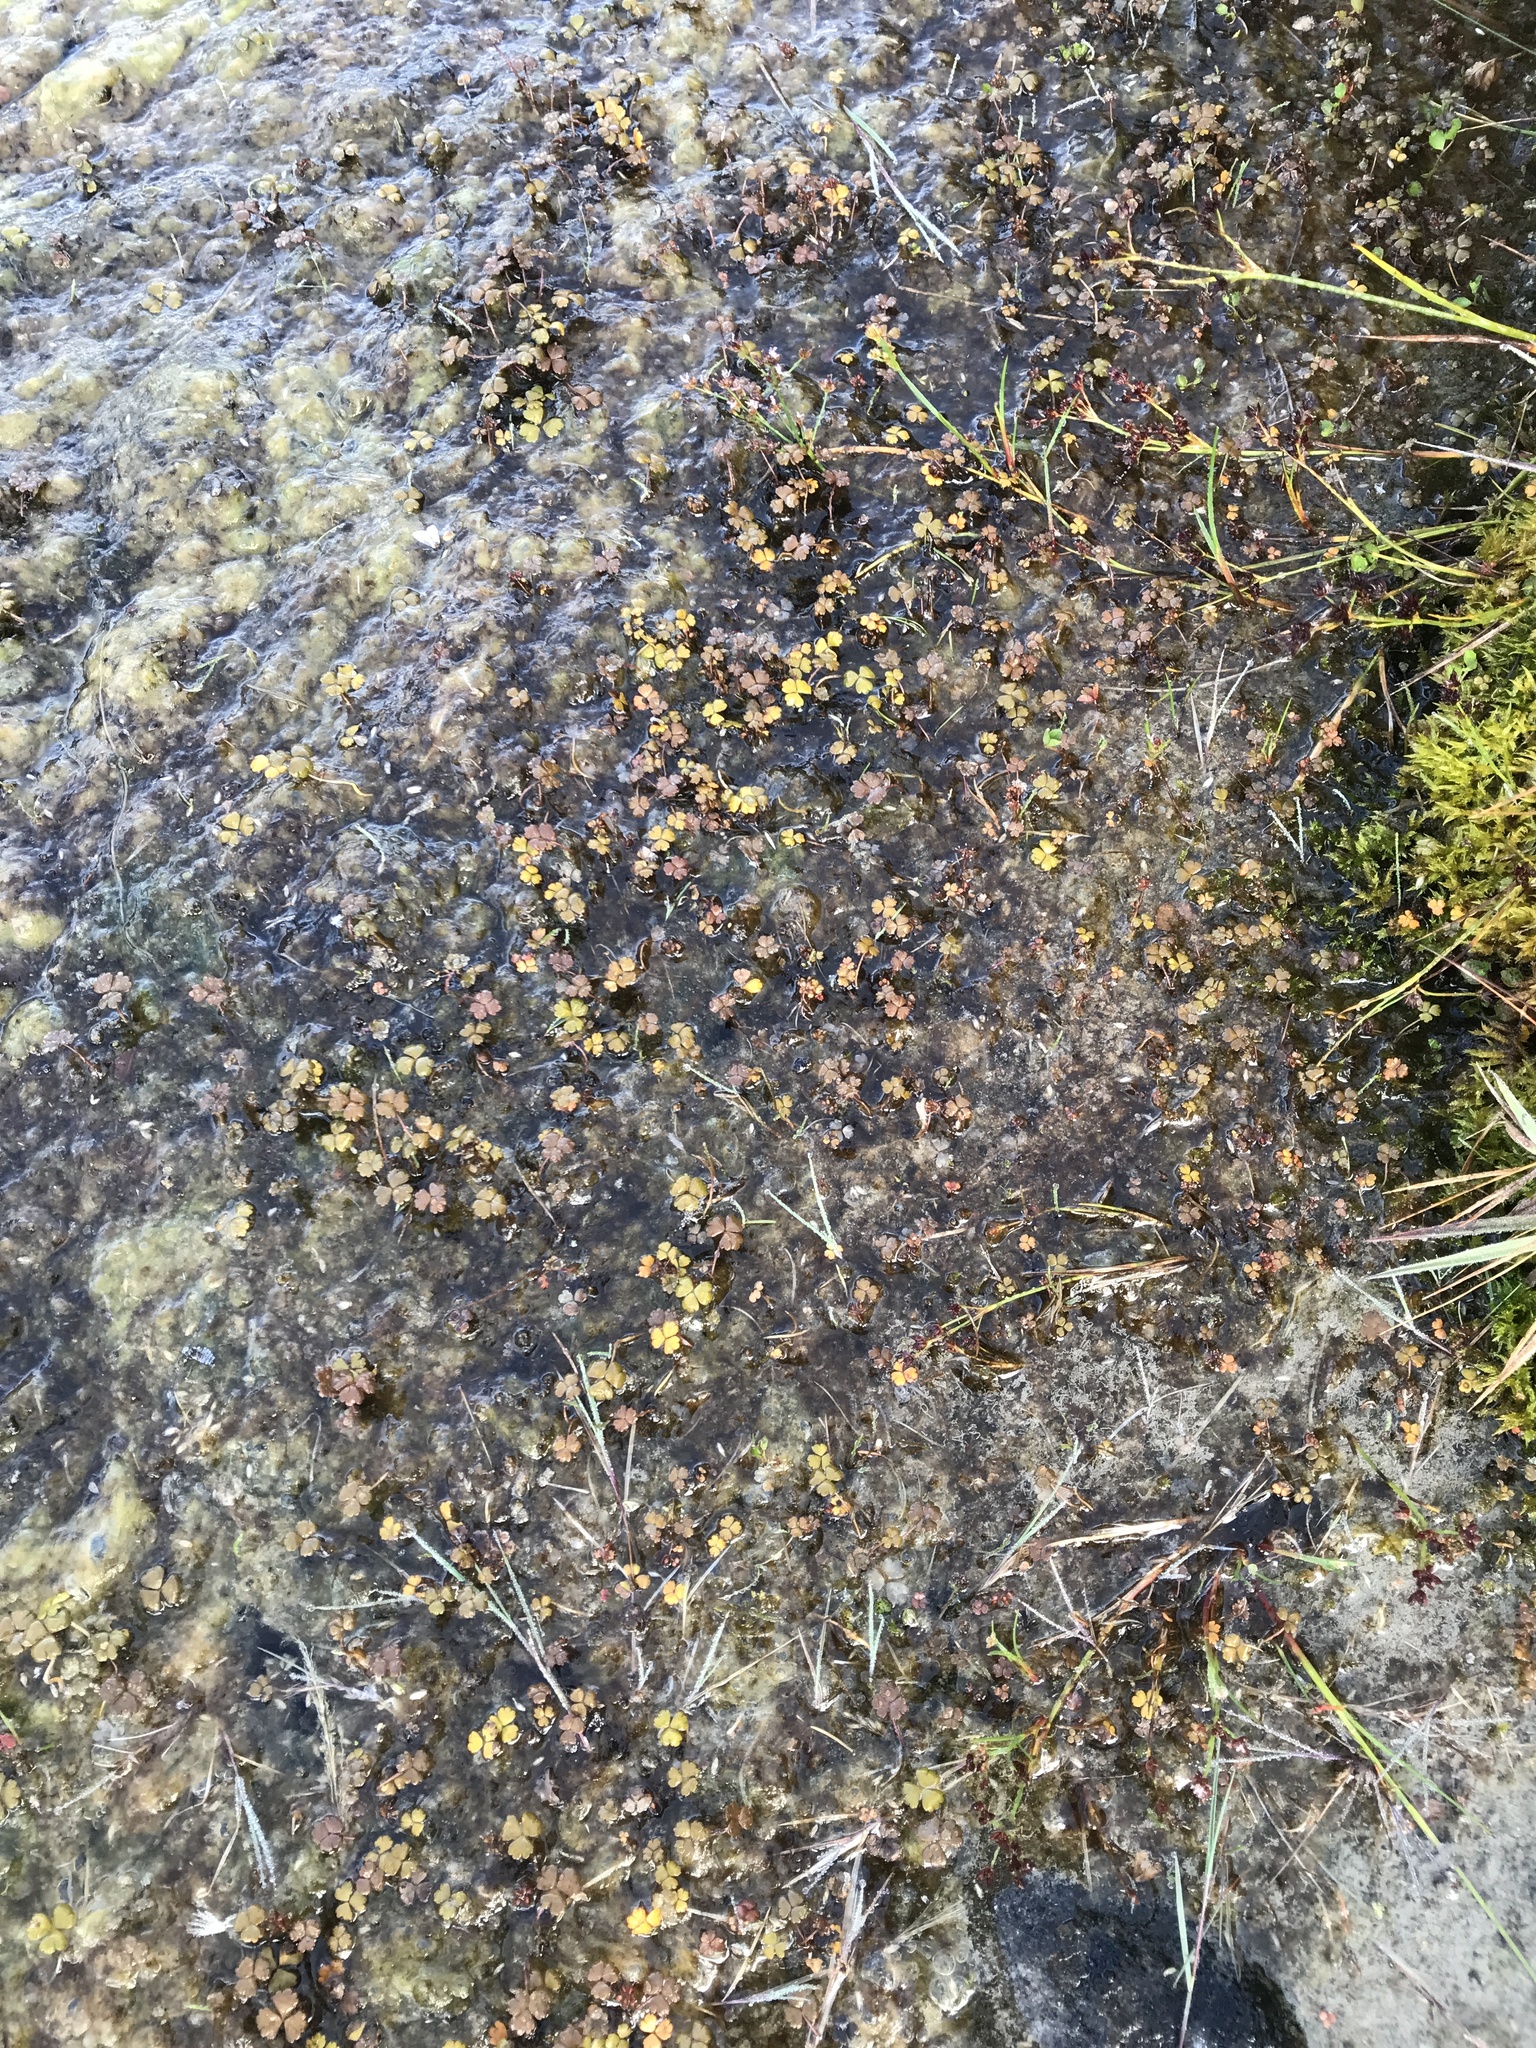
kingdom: Plantae
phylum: Tracheophyta
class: Magnoliopsida
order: Apiales
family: Araliaceae
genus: Hydrocotyle
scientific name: Hydrocotyle sulcata
